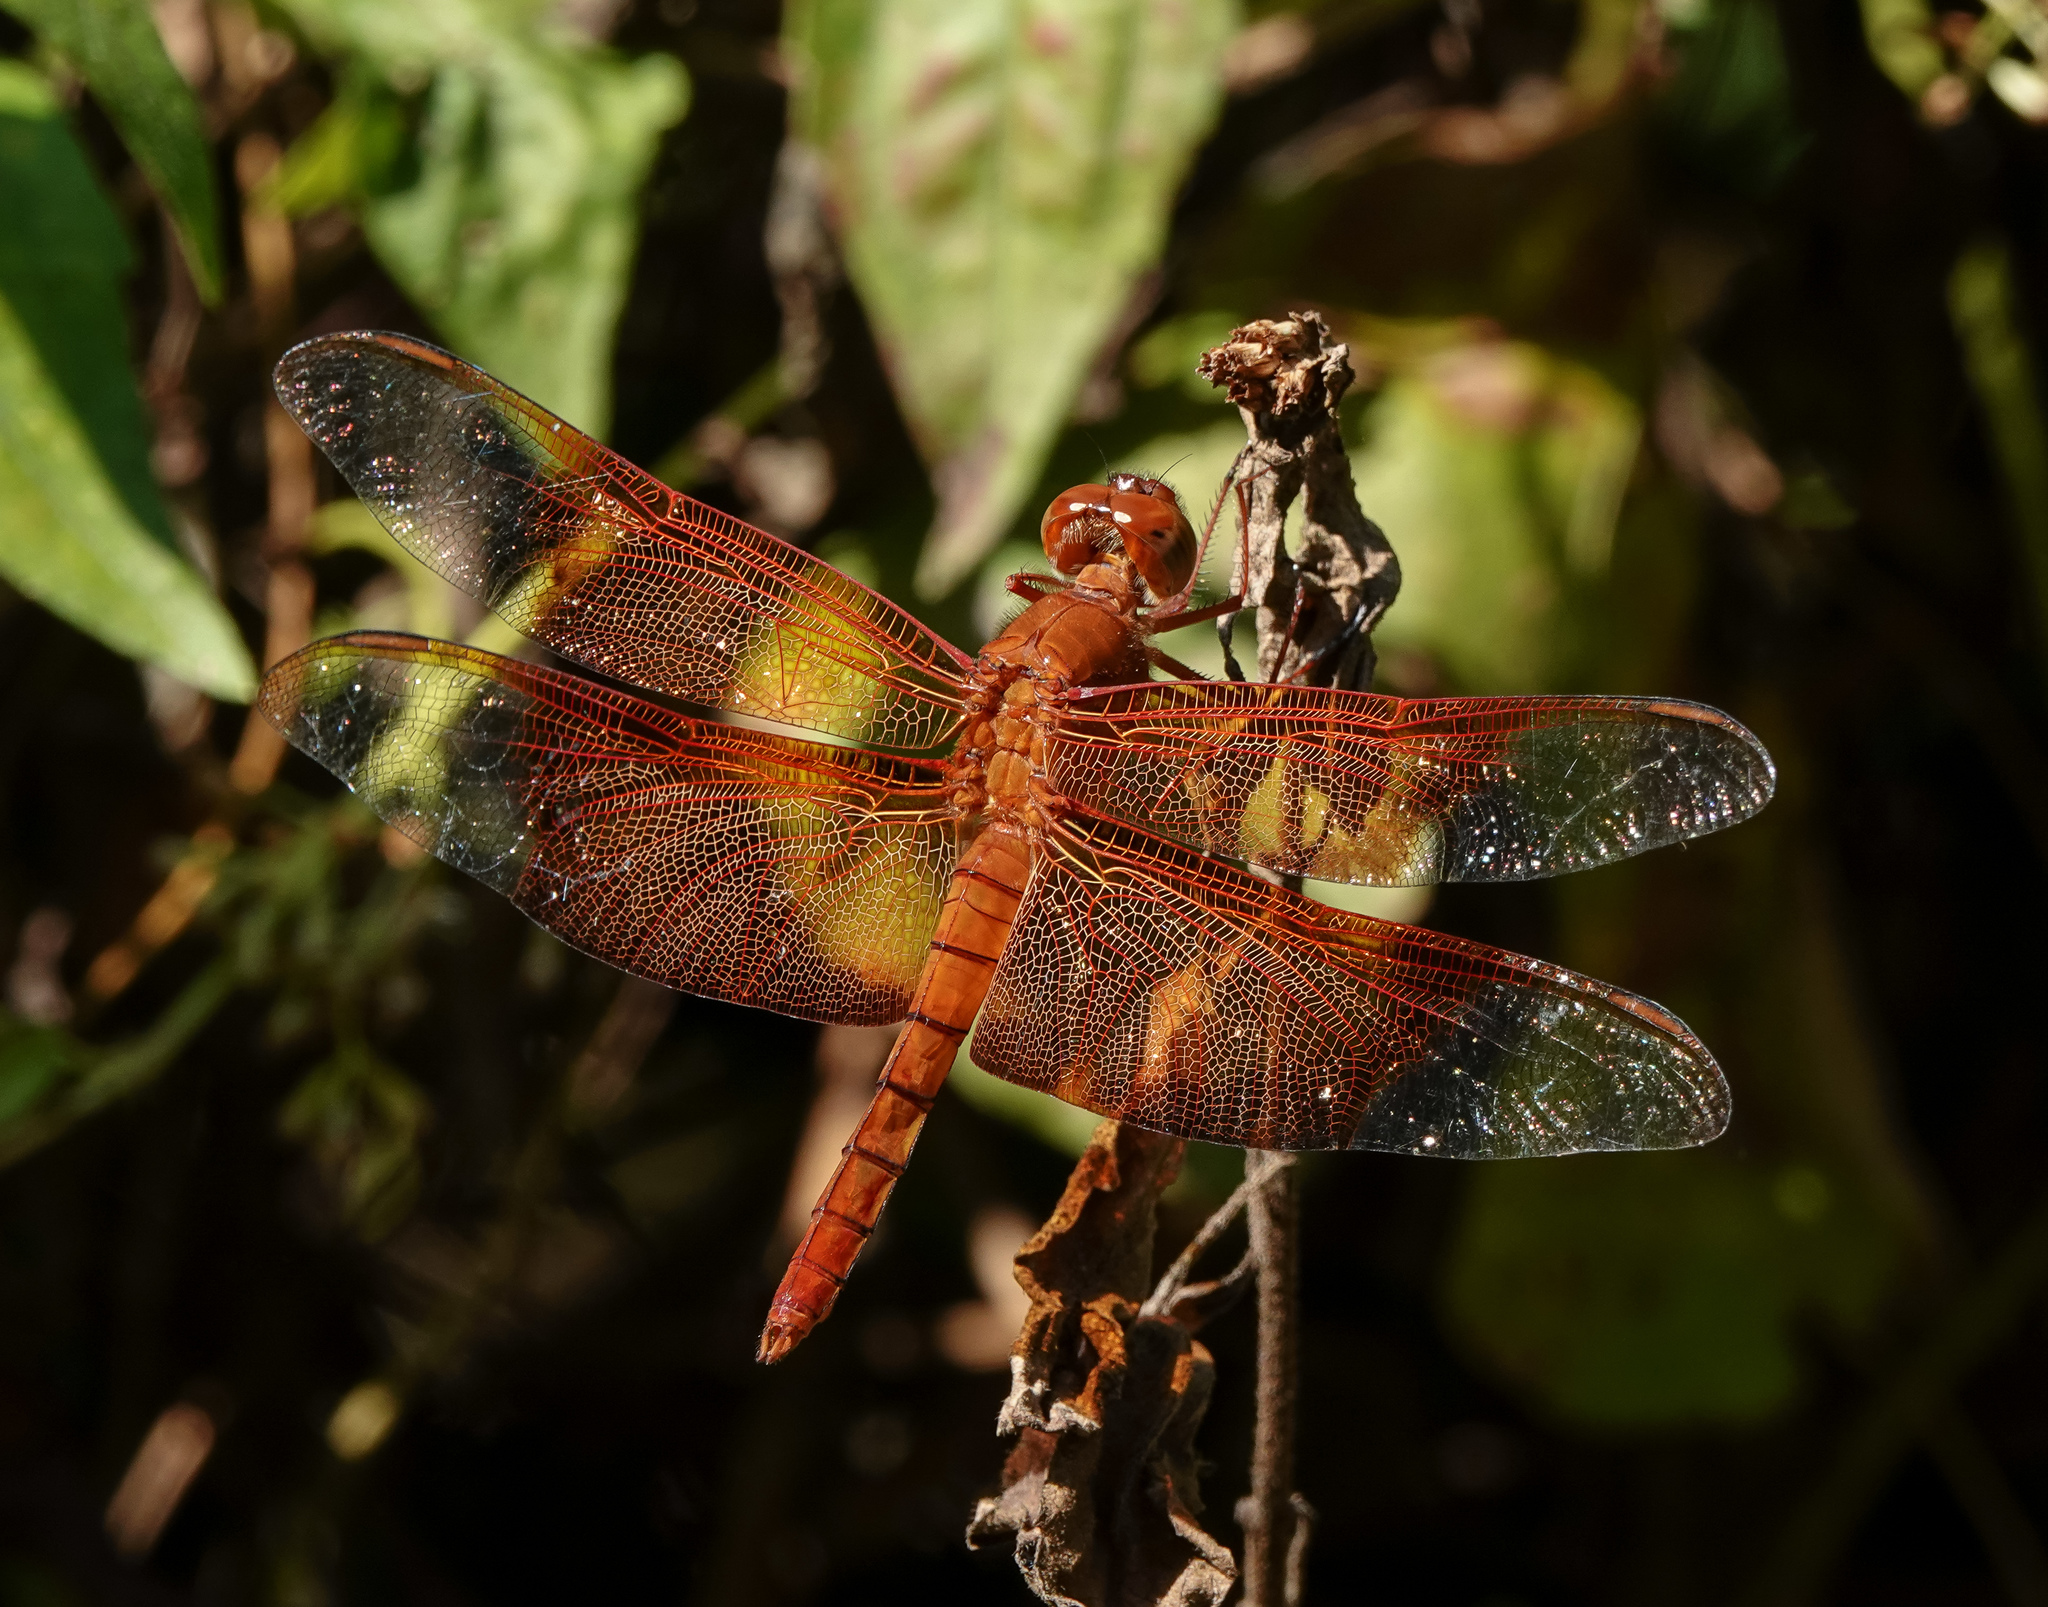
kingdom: Animalia
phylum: Arthropoda
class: Insecta
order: Odonata
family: Libellulidae
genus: Camacinia
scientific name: Camacinia gigantea
